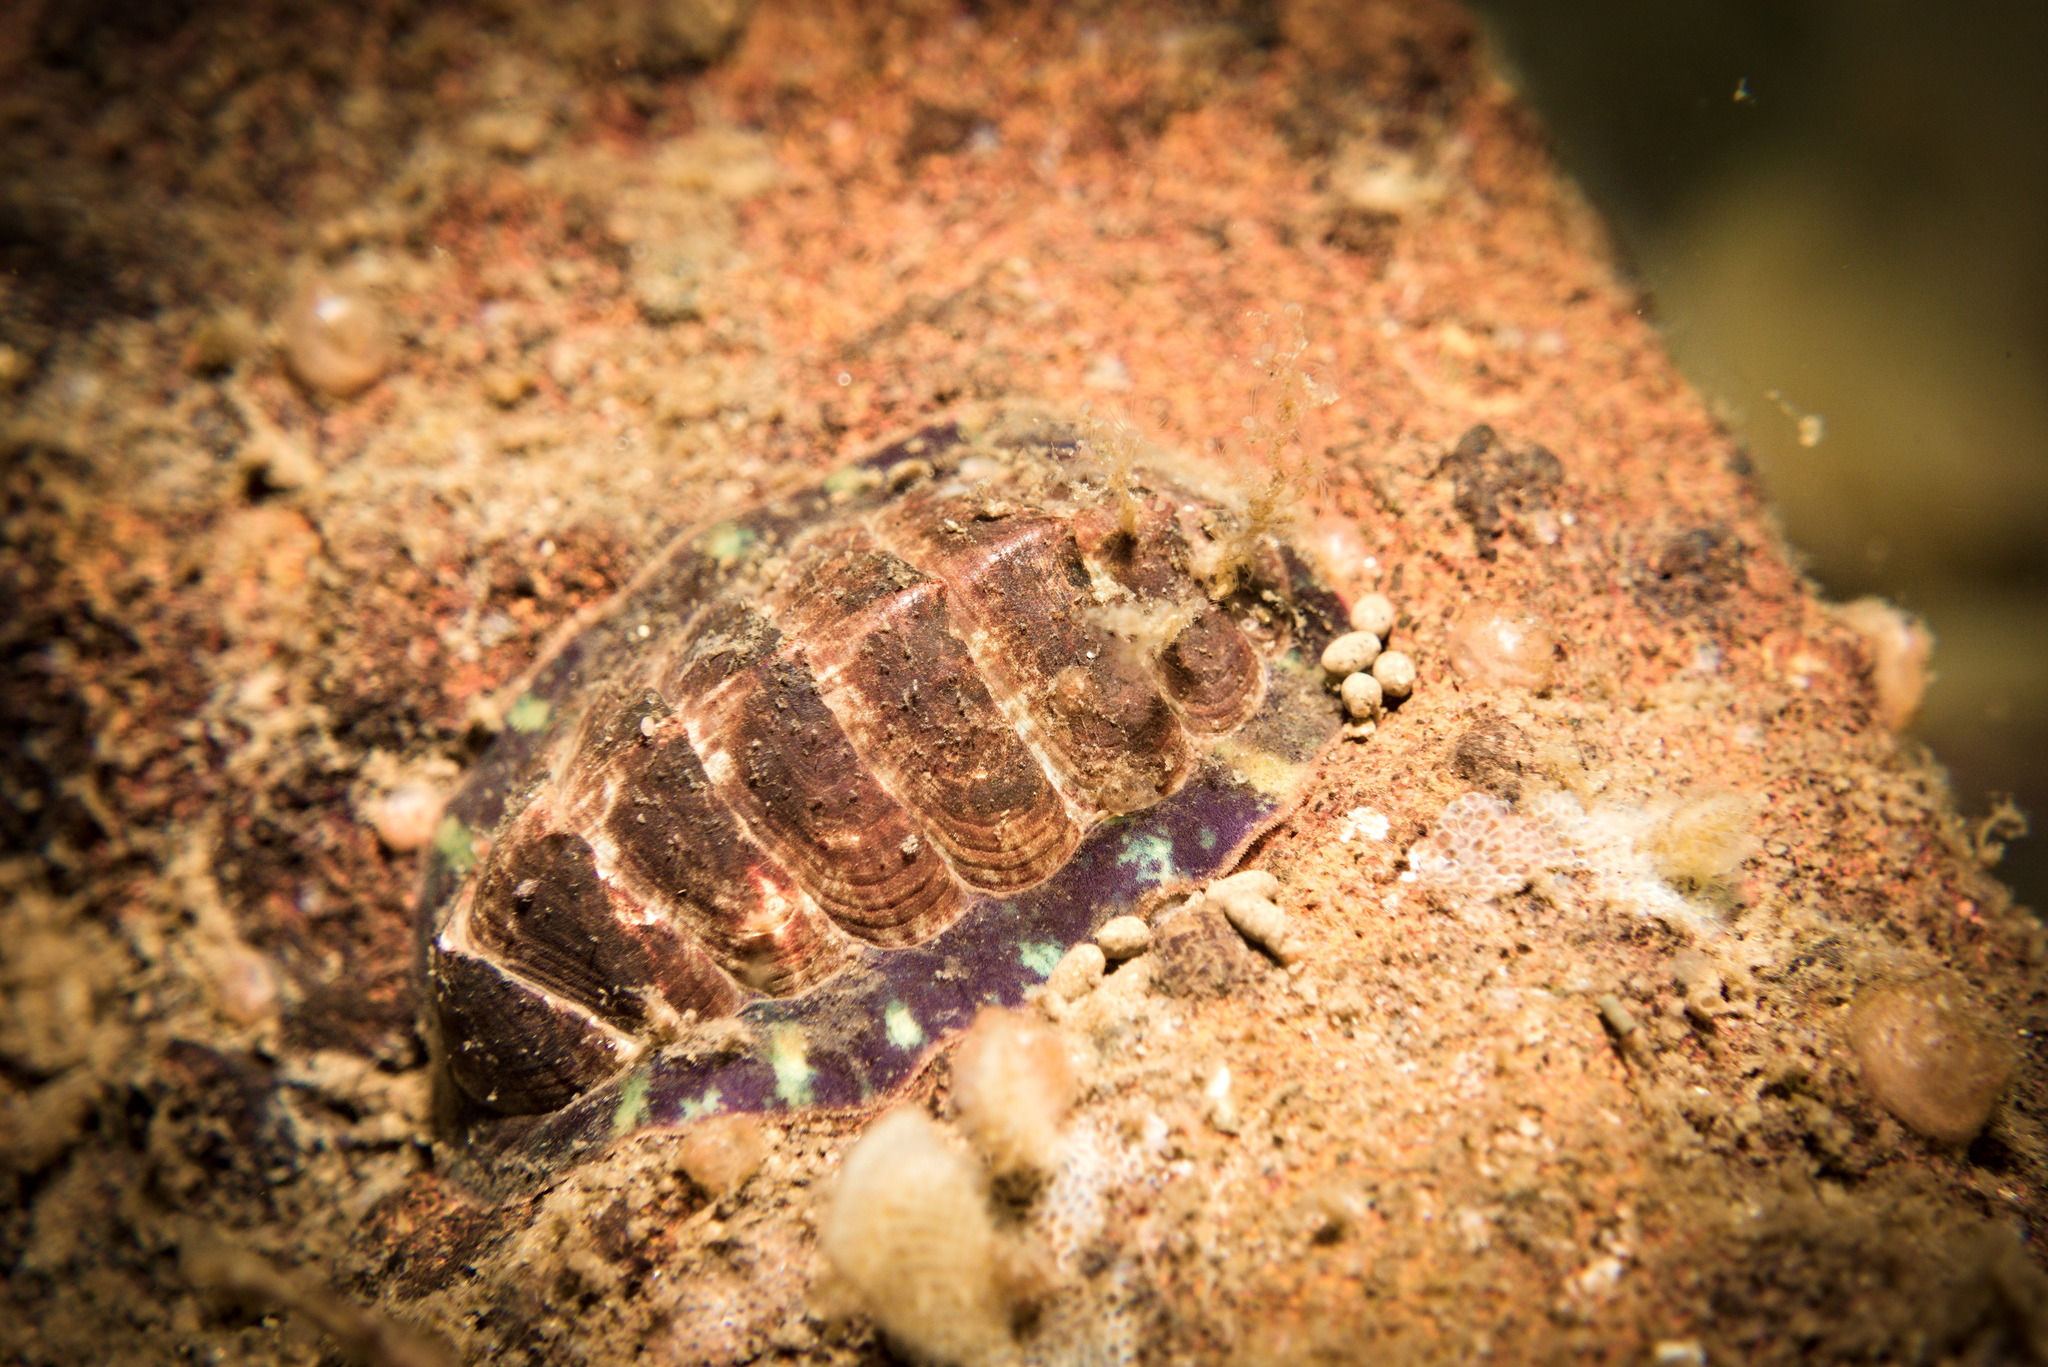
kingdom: Animalia
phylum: Mollusca
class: Polyplacophora
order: Chitonida
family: Tonicellidae
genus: Tonicella
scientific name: Tonicella marmorea
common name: Lined red chiton
